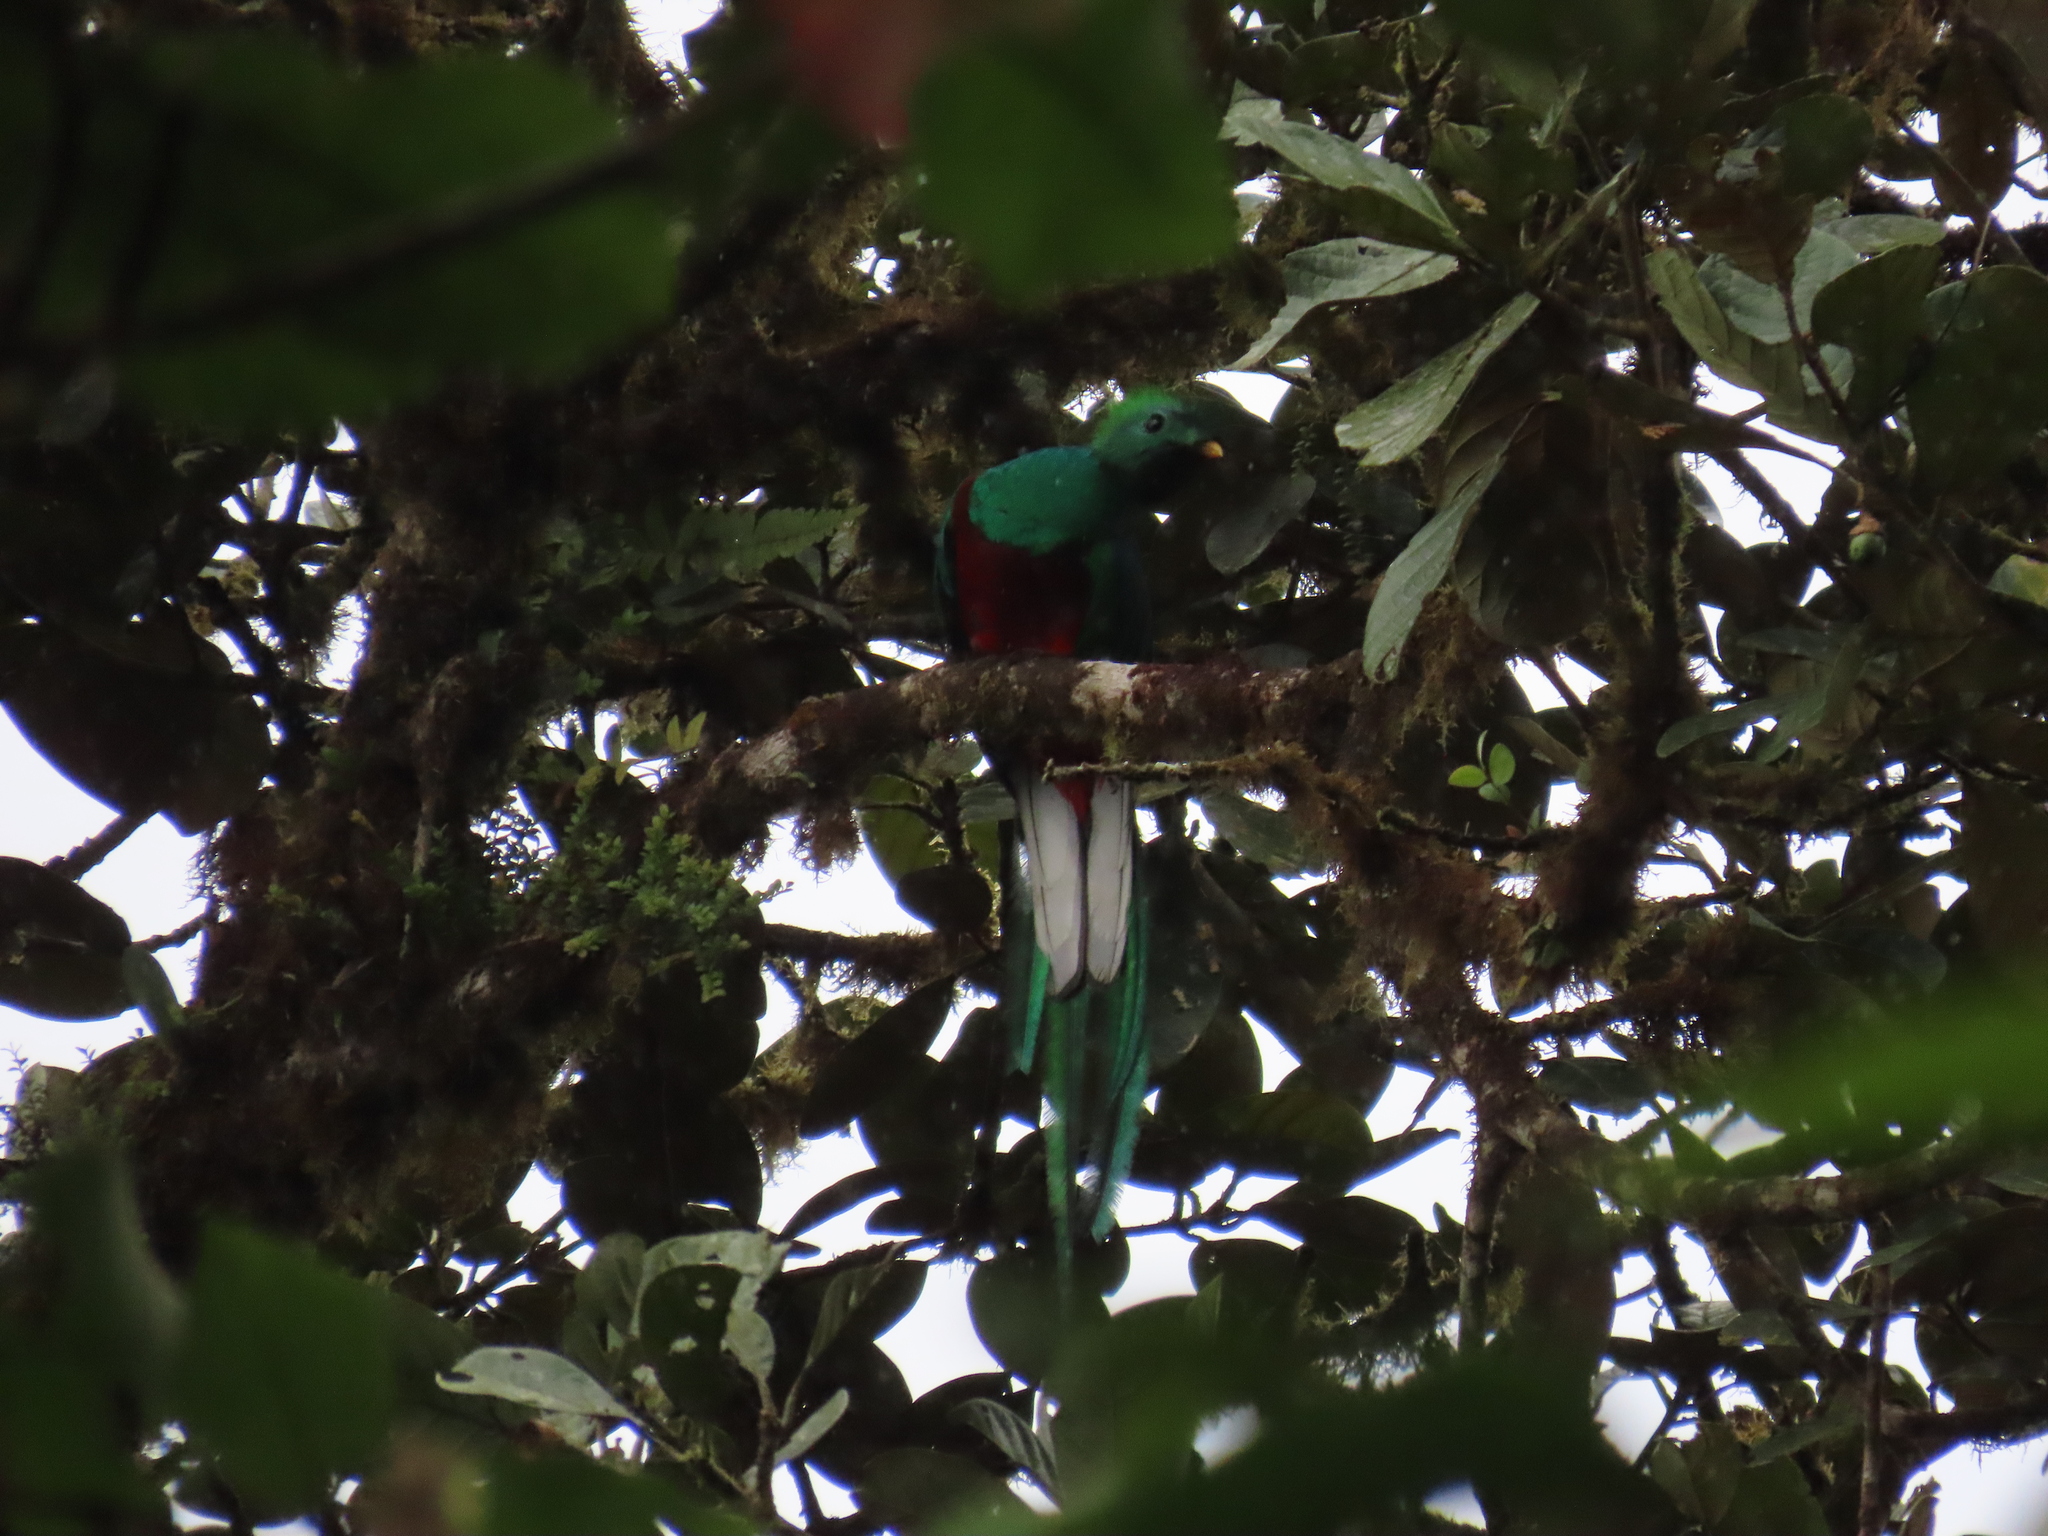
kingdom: Animalia
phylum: Chordata
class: Aves
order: Trogoniformes
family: Trogonidae
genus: Pharomachrus
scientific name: Pharomachrus mocinno
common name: Resplendent quetzal
